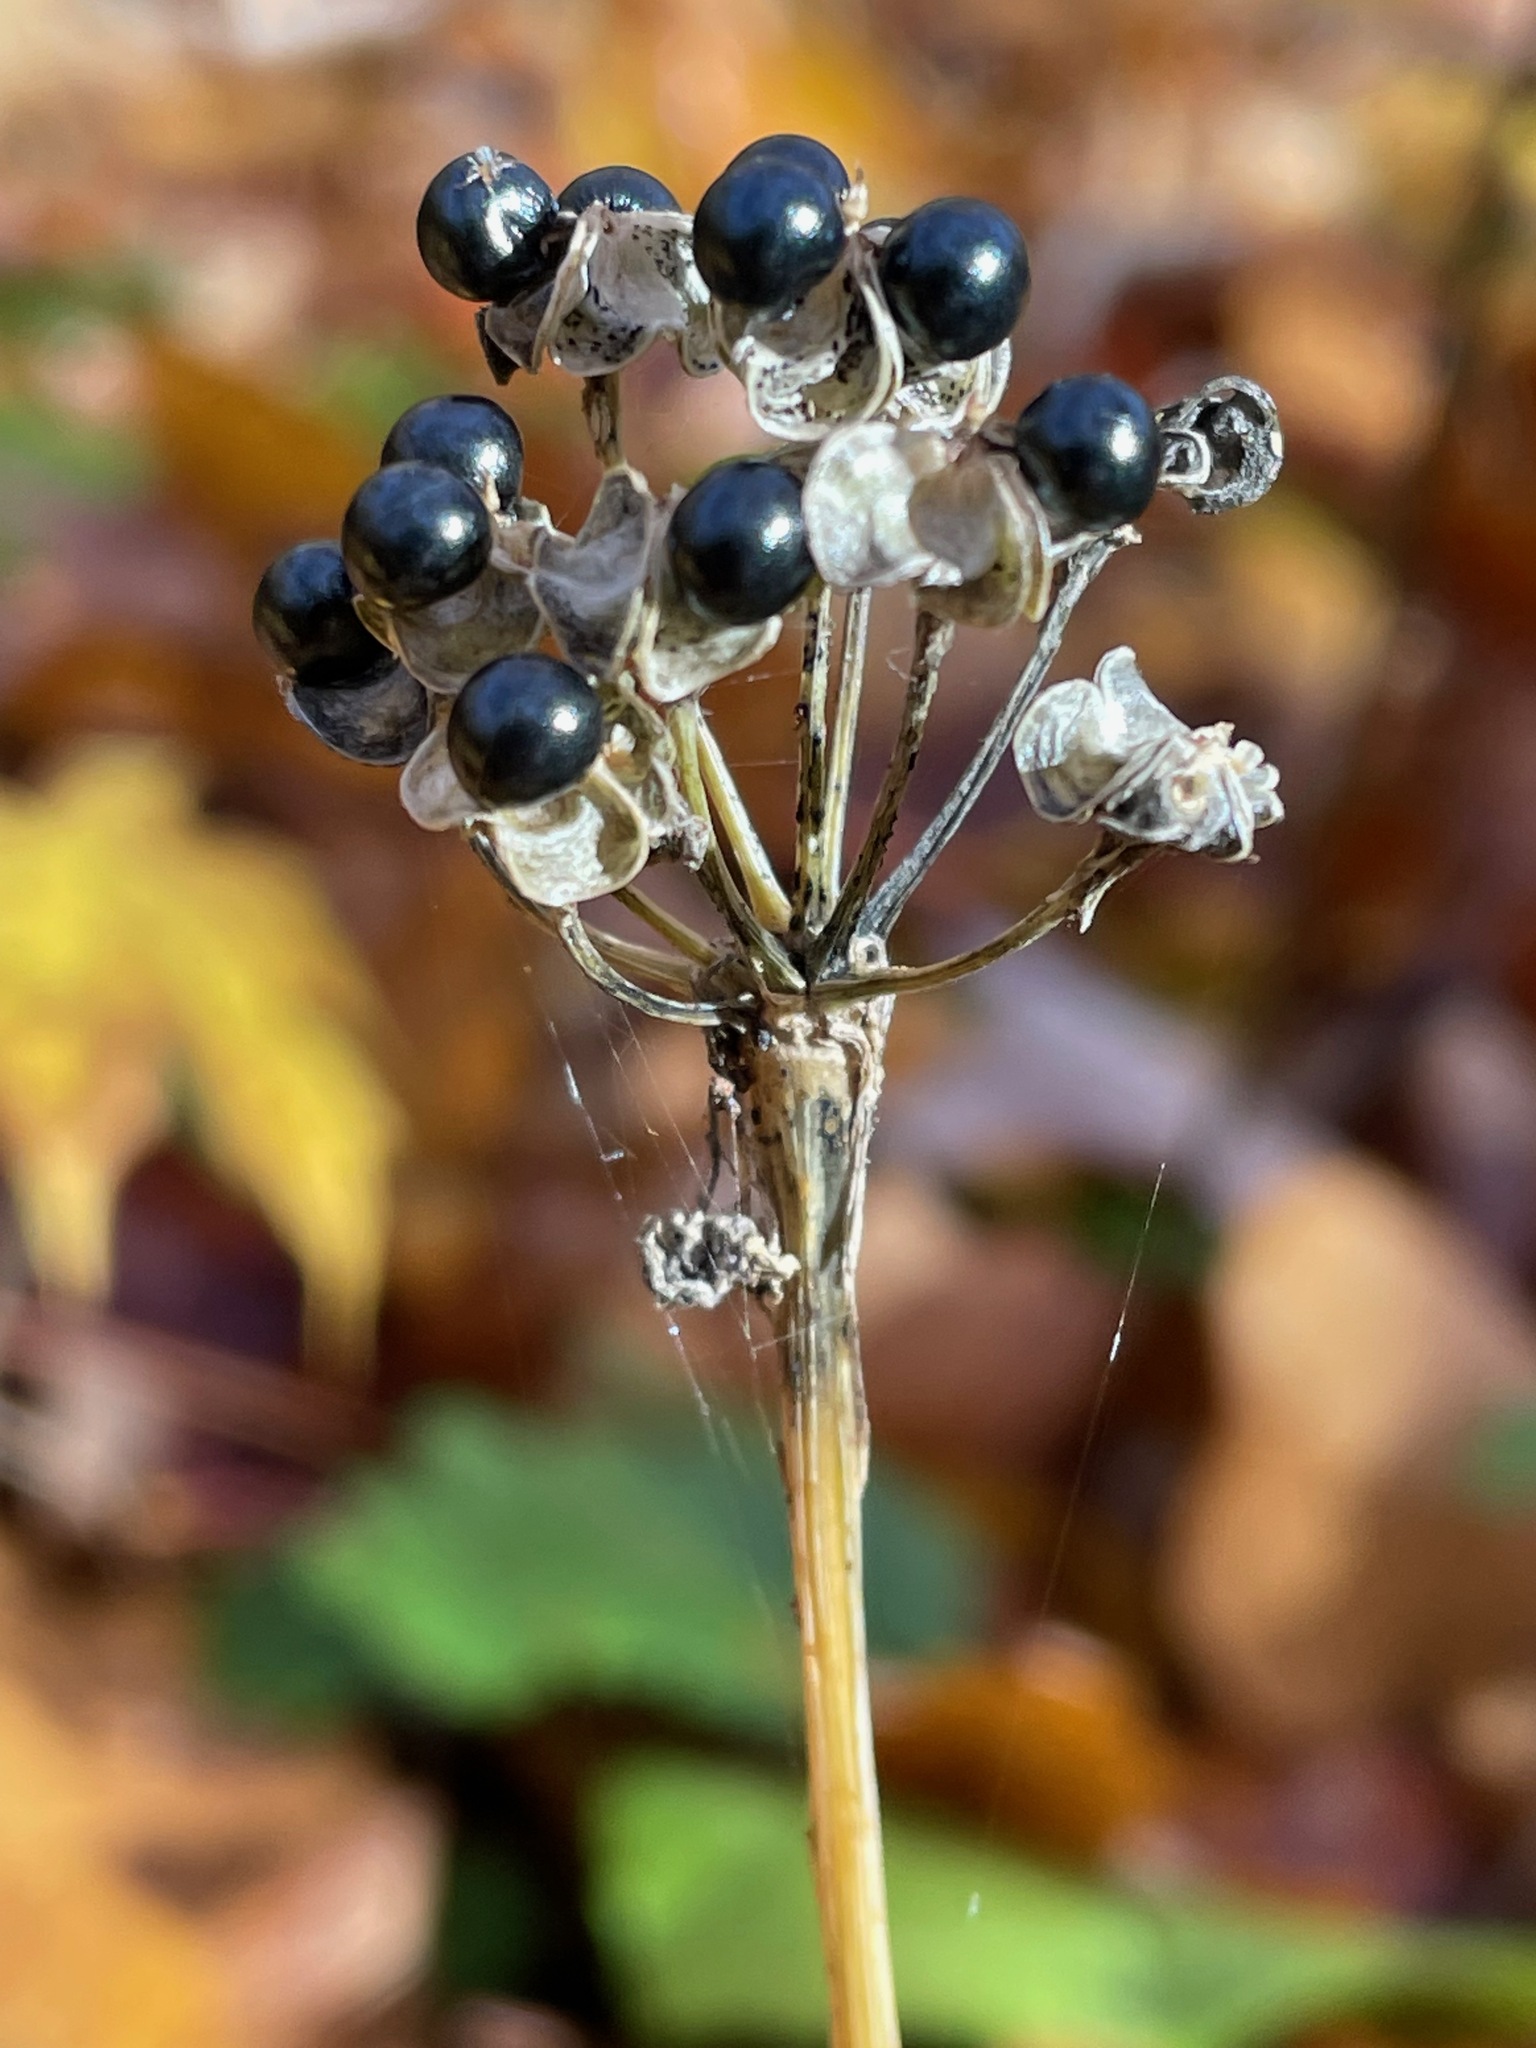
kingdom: Plantae
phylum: Tracheophyta
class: Liliopsida
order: Asparagales
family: Amaryllidaceae
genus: Allium
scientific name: Allium tricoccum
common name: Ramp
